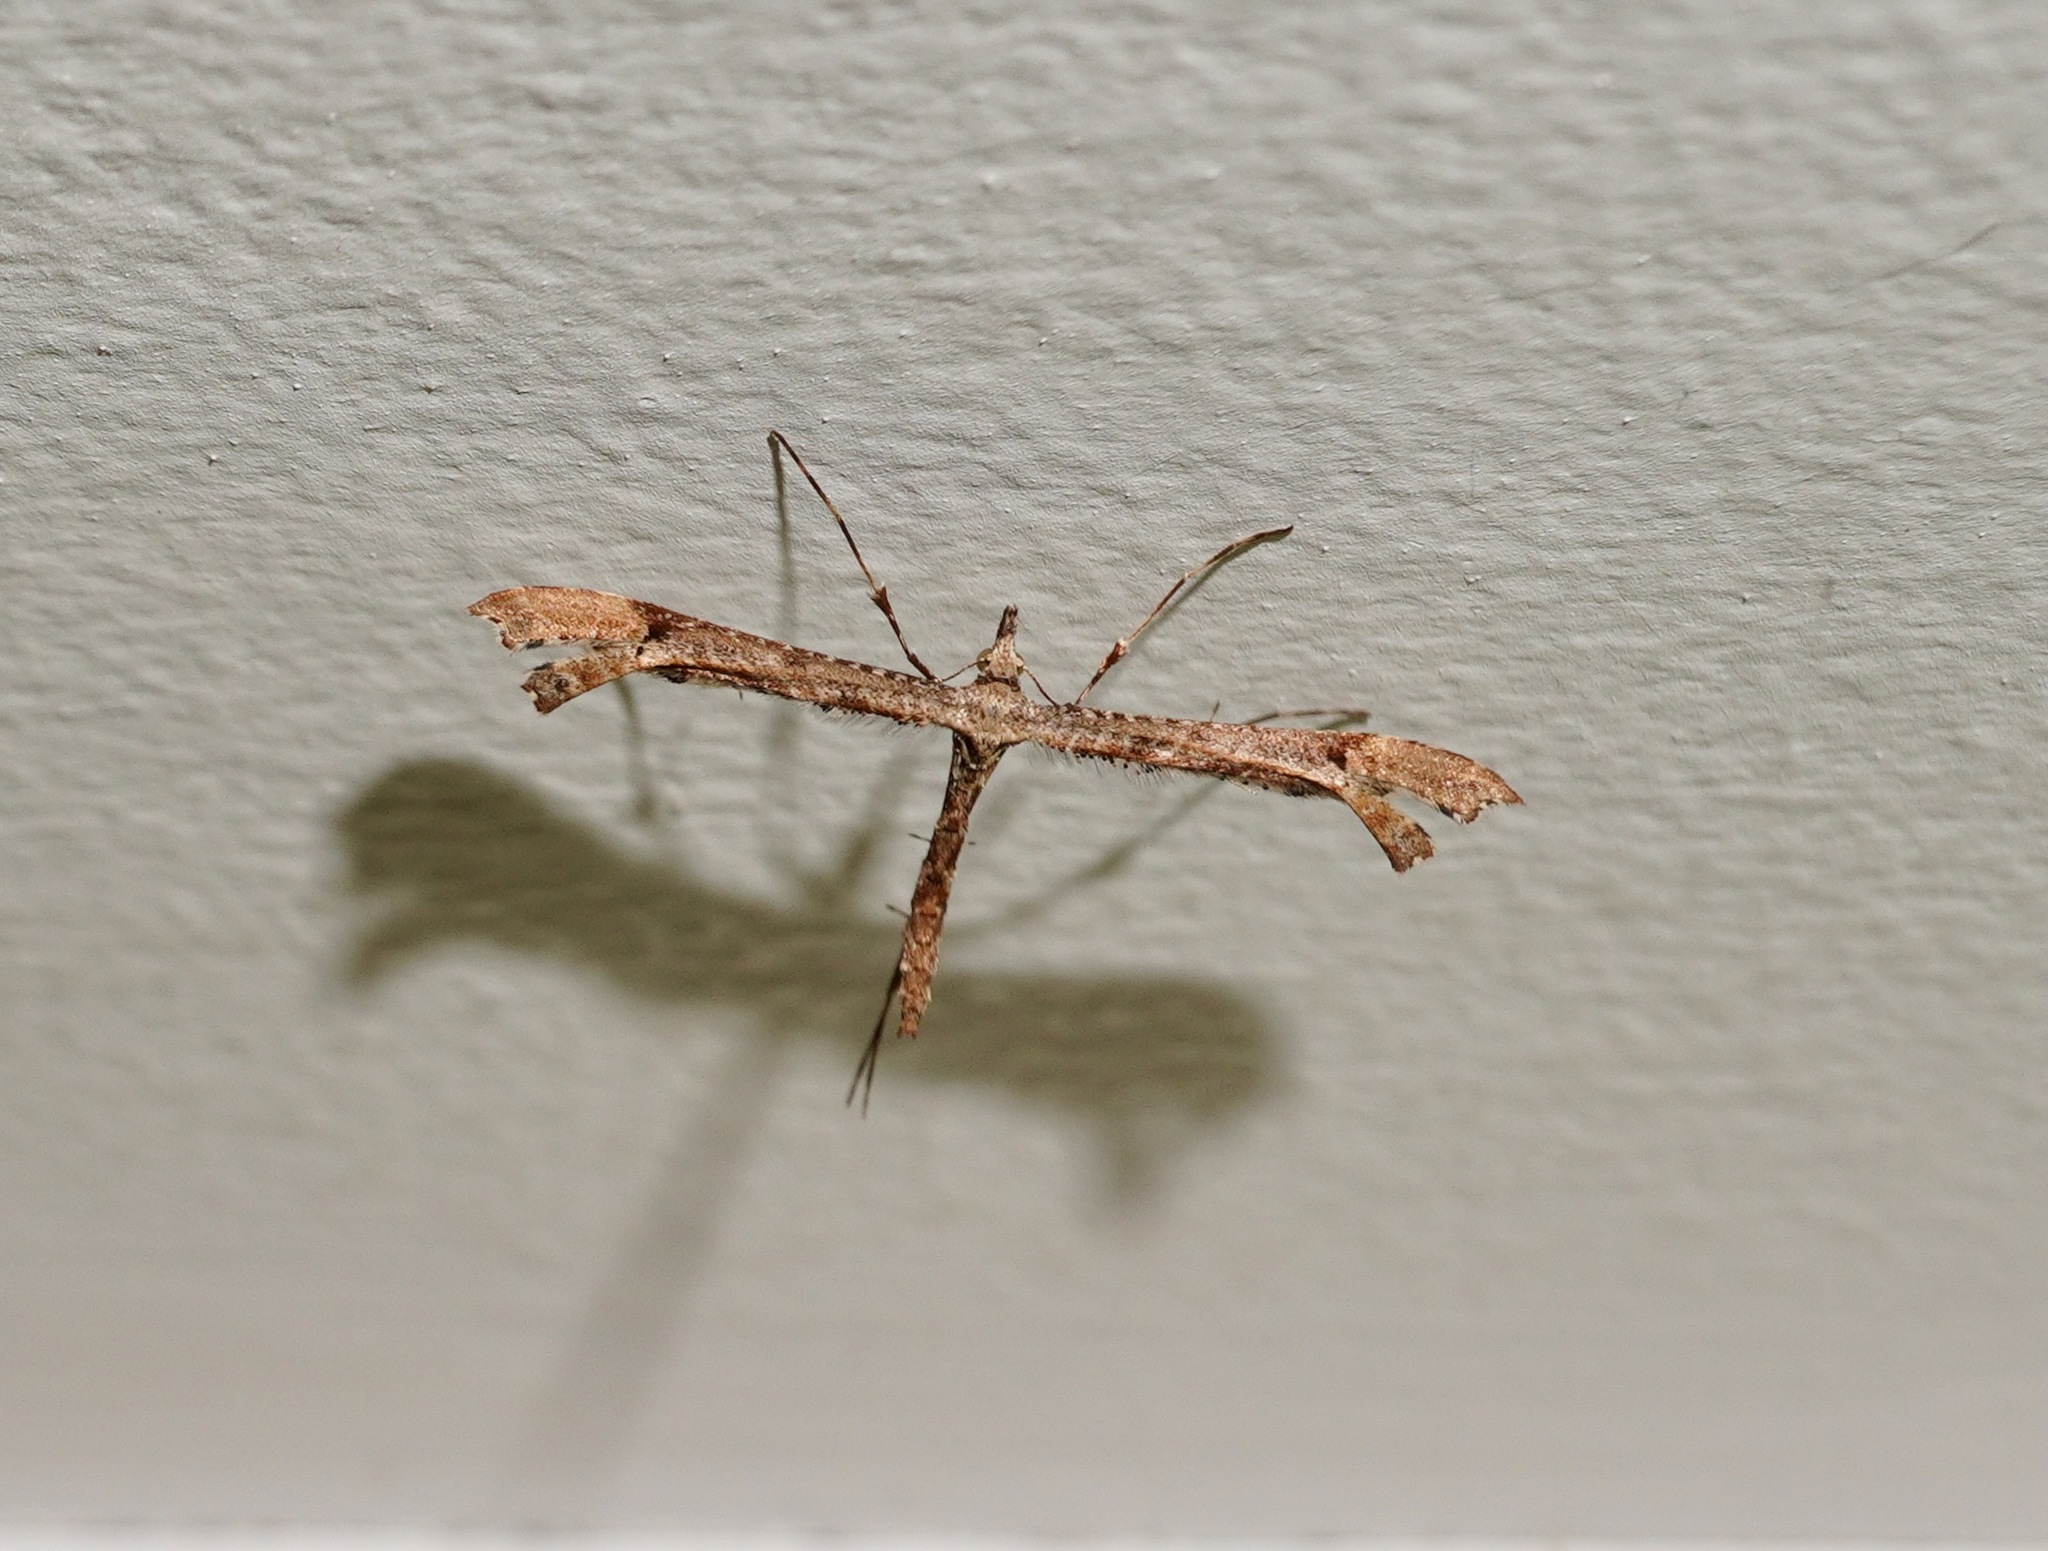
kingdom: Animalia
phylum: Arthropoda
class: Insecta
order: Lepidoptera
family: Pterophoridae
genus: Amblyptilia
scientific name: Amblyptilia repletalis
